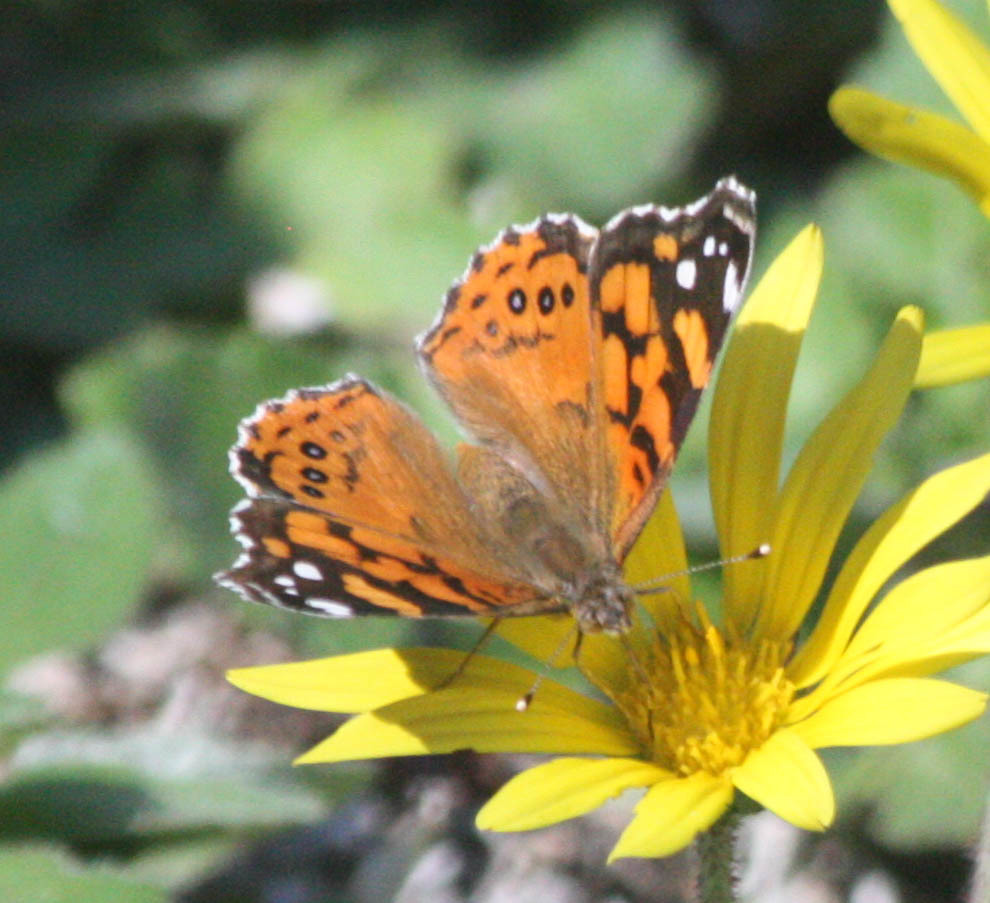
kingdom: Animalia
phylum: Arthropoda
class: Insecta
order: Lepidoptera
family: Nymphalidae
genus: Vanessa
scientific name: Vanessa annabella
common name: West coast lady
